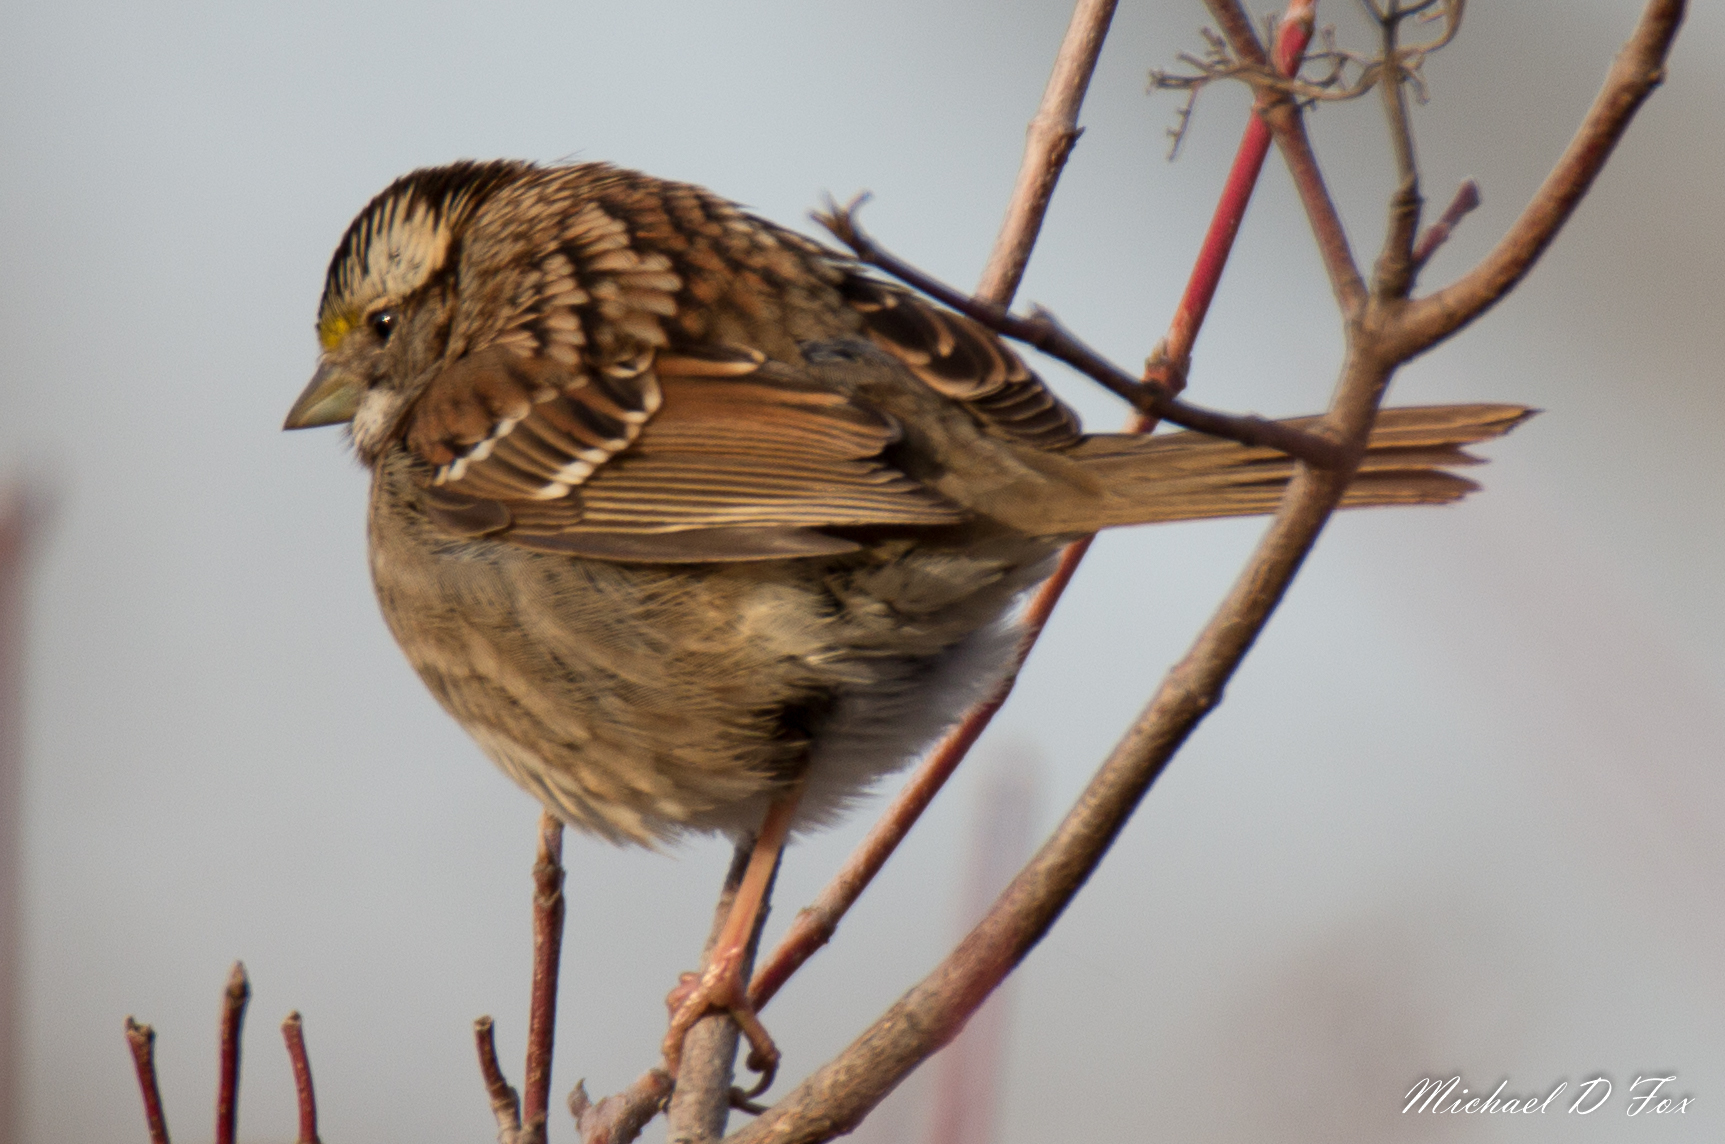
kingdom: Animalia
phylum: Chordata
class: Aves
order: Passeriformes
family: Passerellidae
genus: Zonotrichia
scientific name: Zonotrichia albicollis
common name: White-throated sparrow
